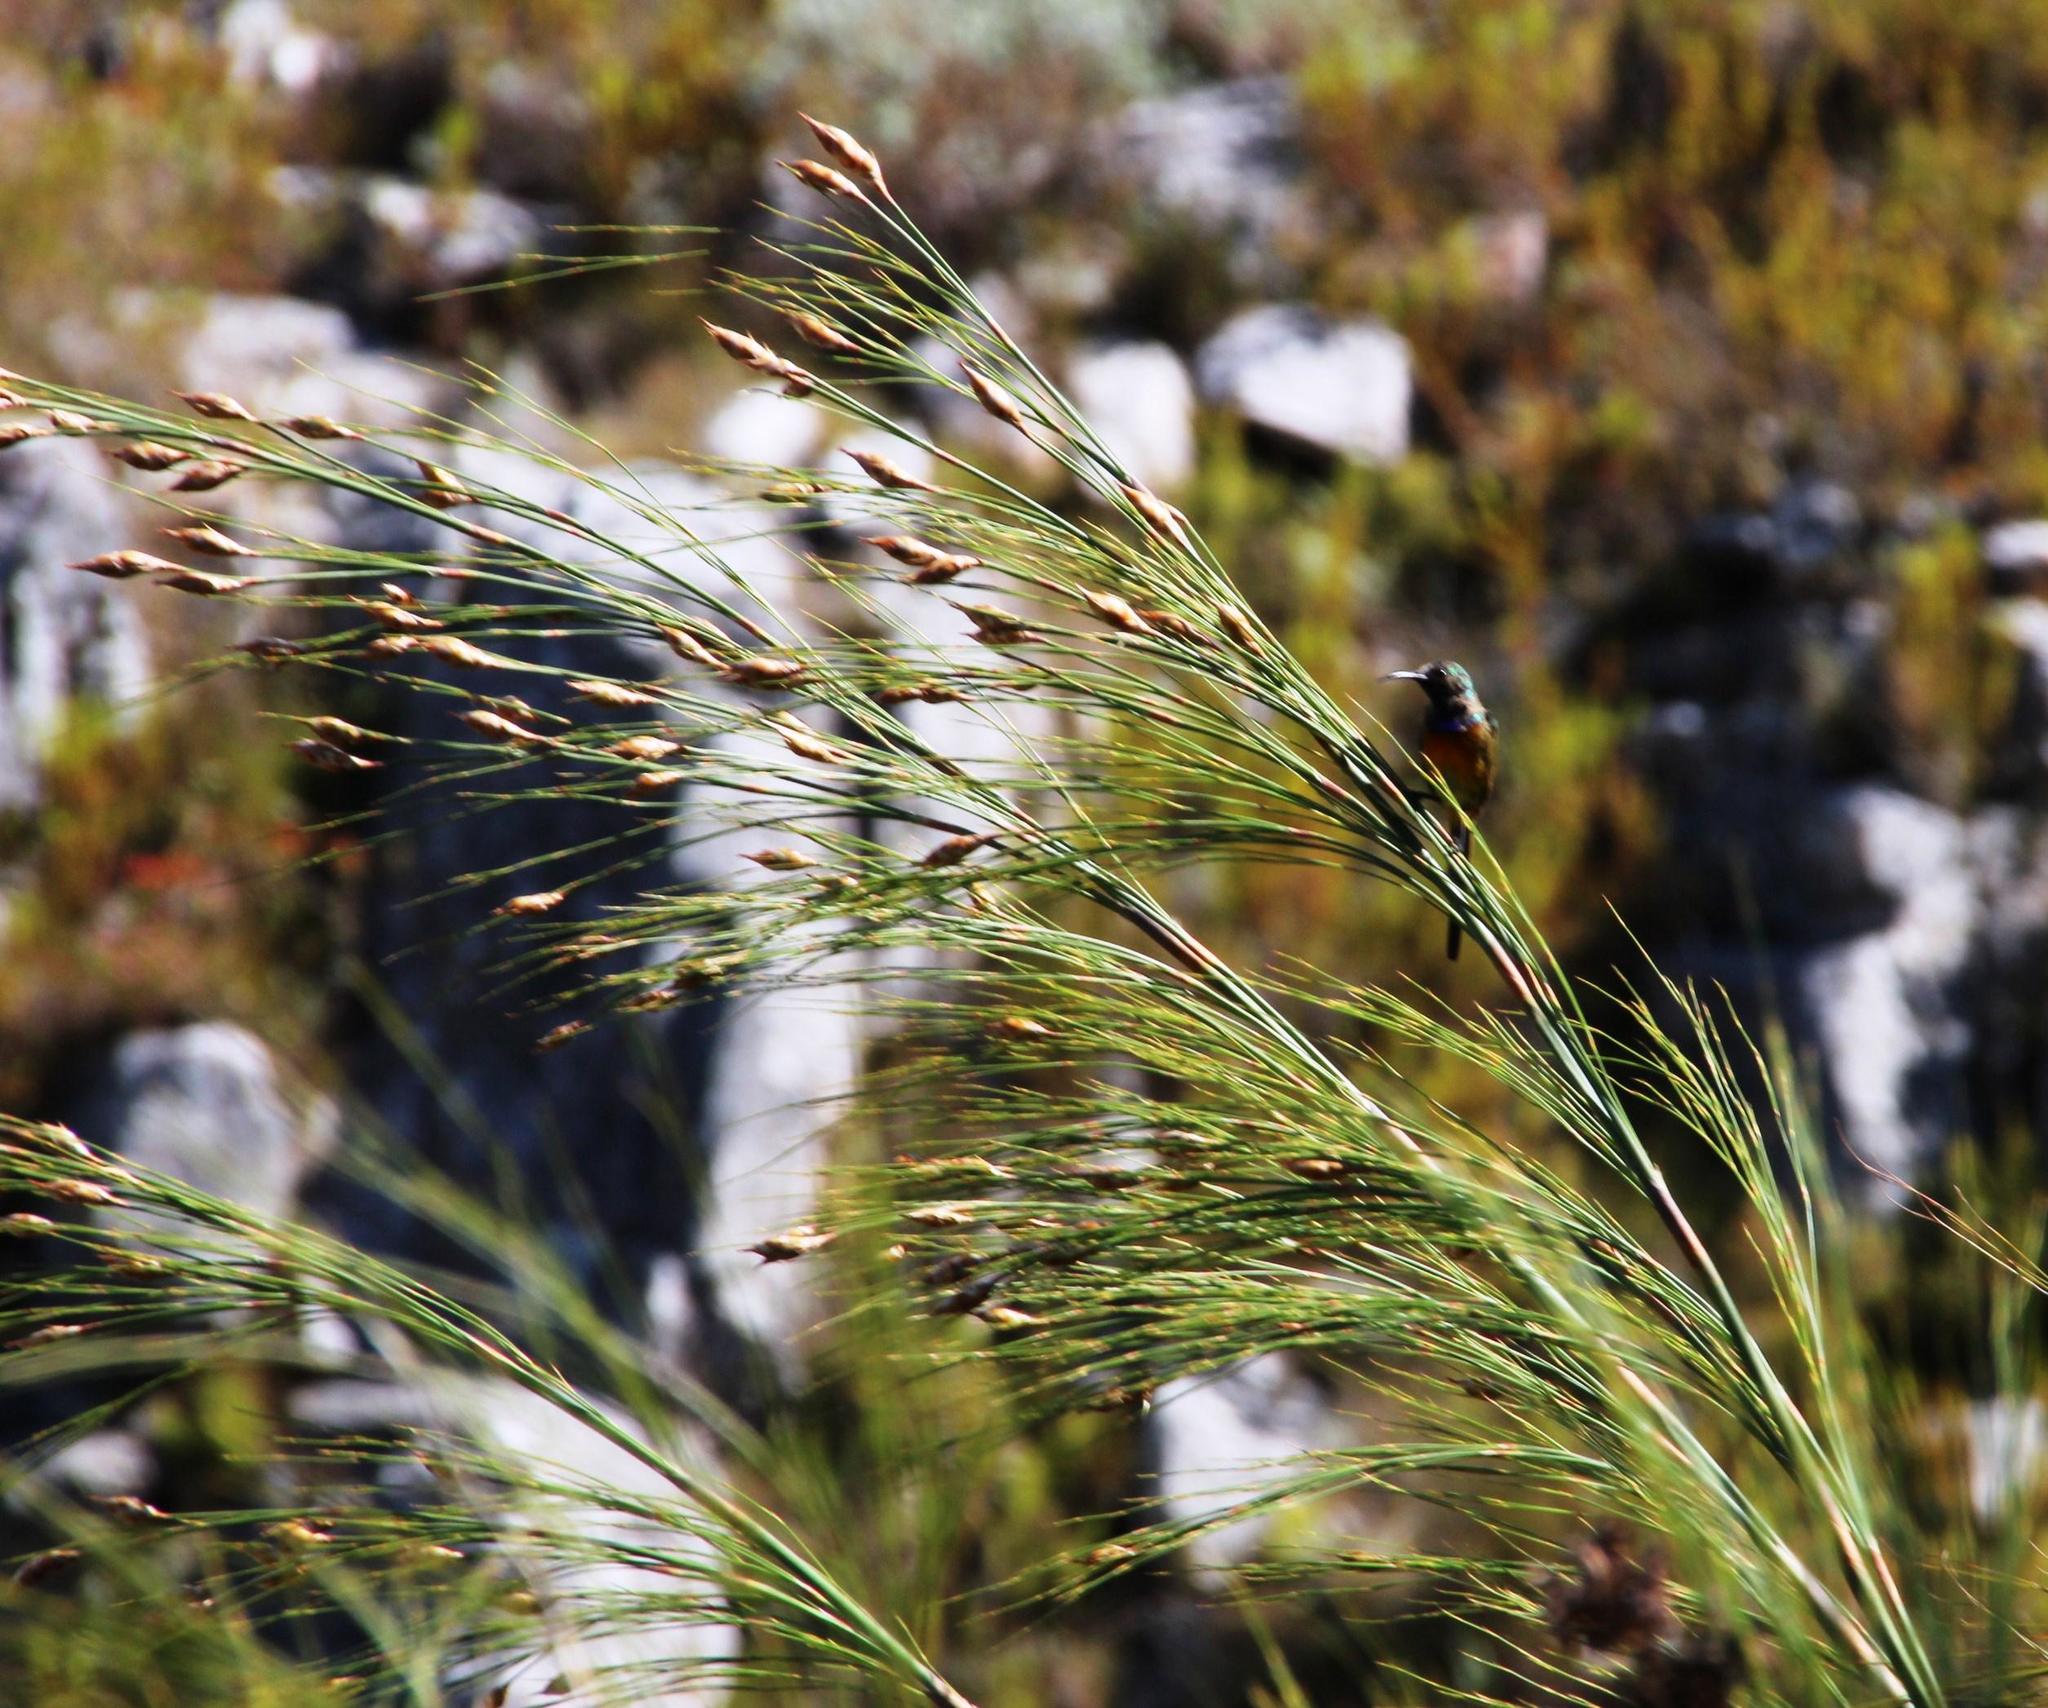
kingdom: Plantae
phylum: Tracheophyta
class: Liliopsida
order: Poales
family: Restionaceae
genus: Cannomois
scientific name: Cannomois virgata
